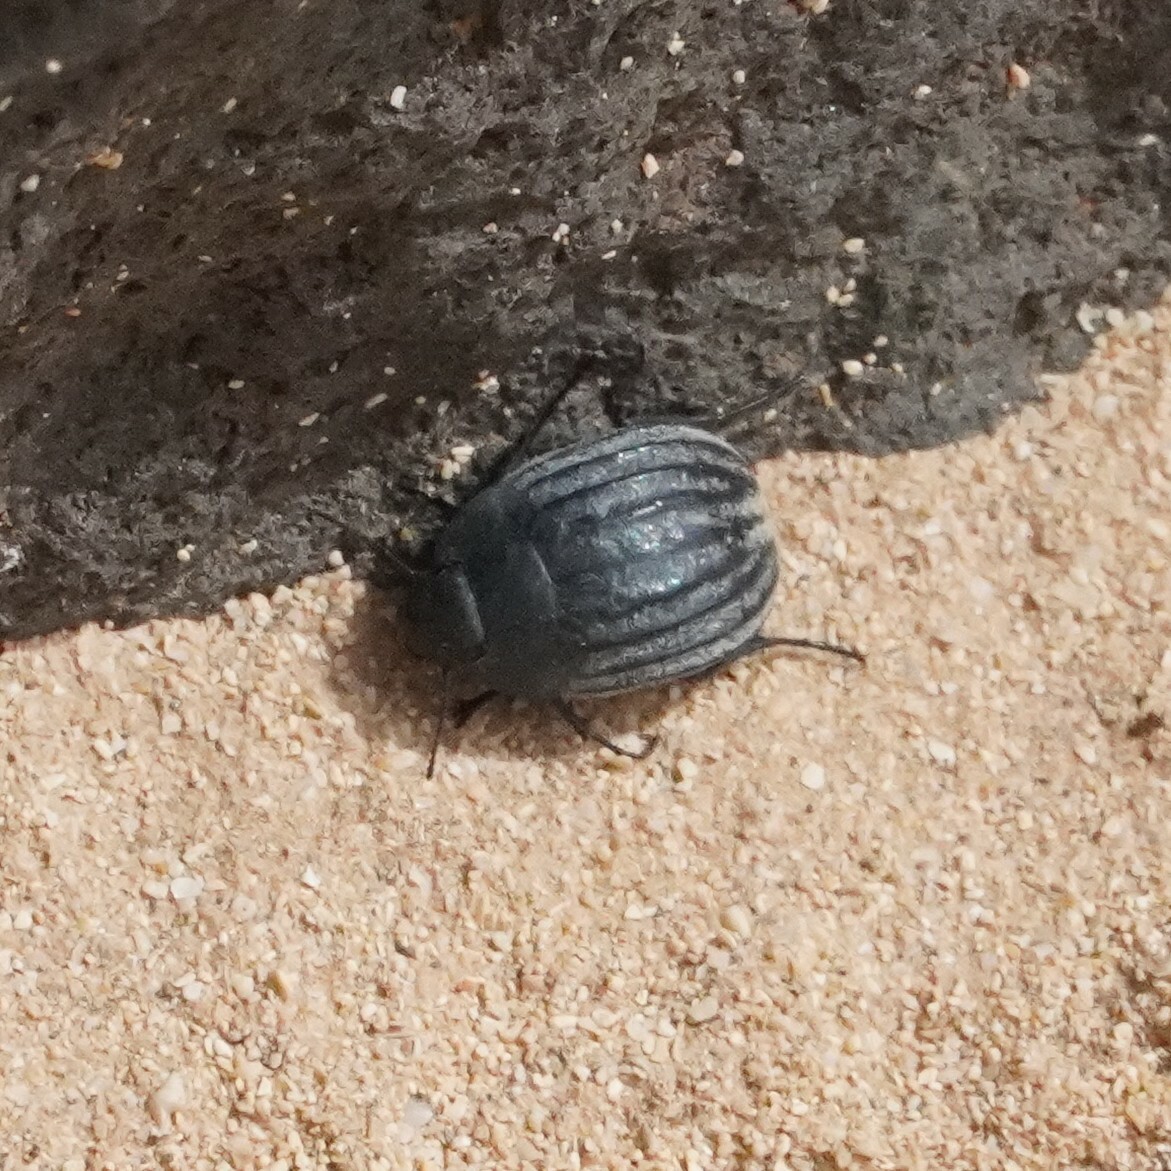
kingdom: Animalia
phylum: Arthropoda
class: Insecta
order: Coleoptera
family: Tenebrionidae
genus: Zophosis
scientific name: Zophosis bicarinata
